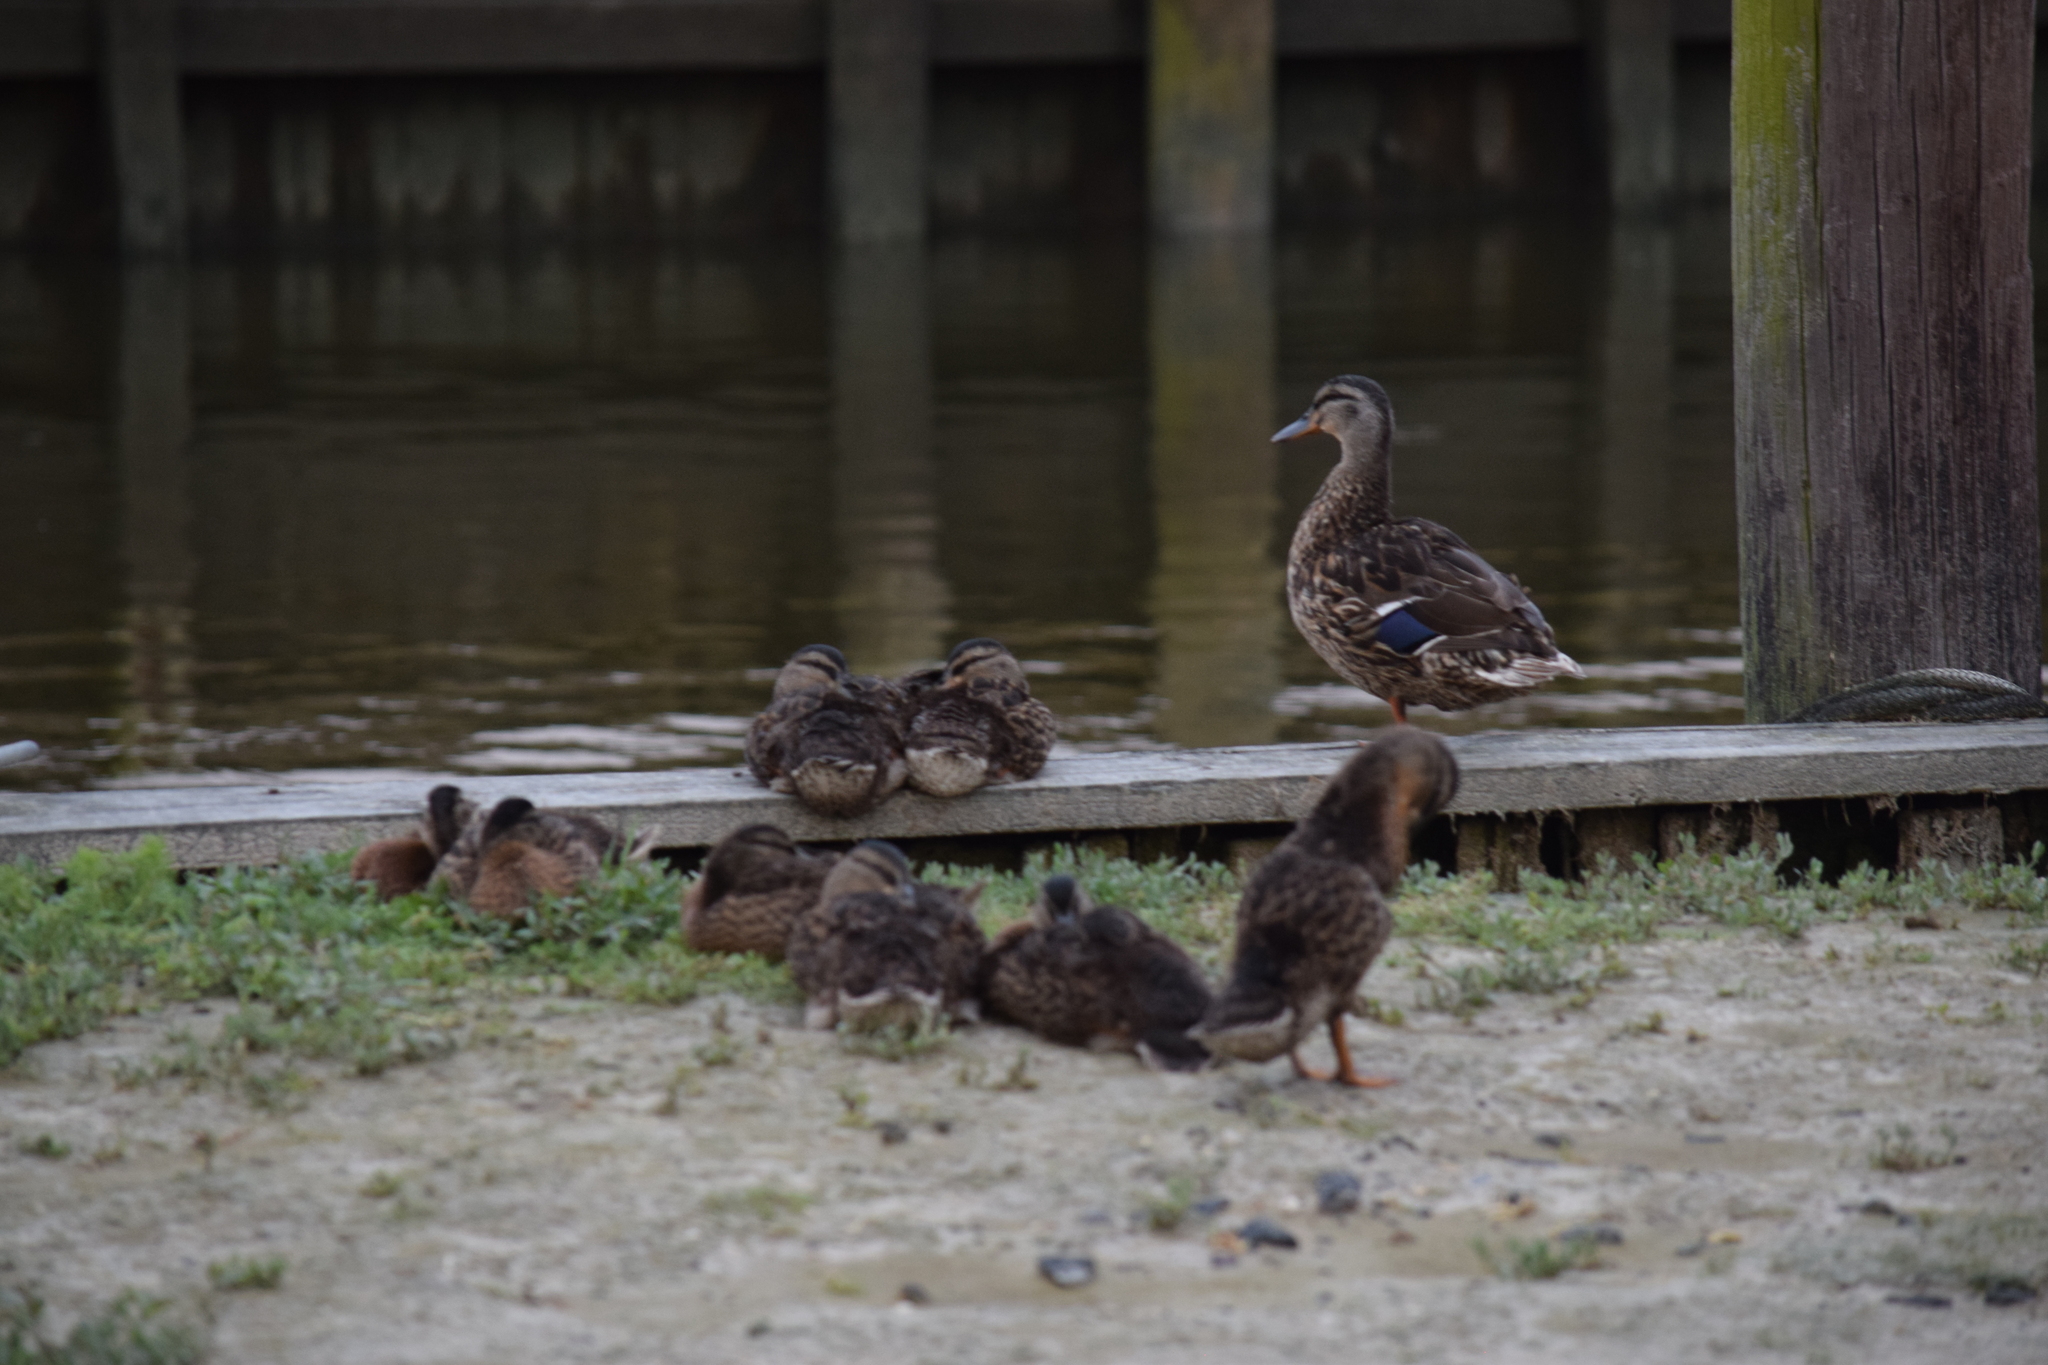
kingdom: Animalia
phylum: Chordata
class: Aves
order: Anseriformes
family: Anatidae
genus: Anas
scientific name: Anas platyrhynchos
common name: Mallard
